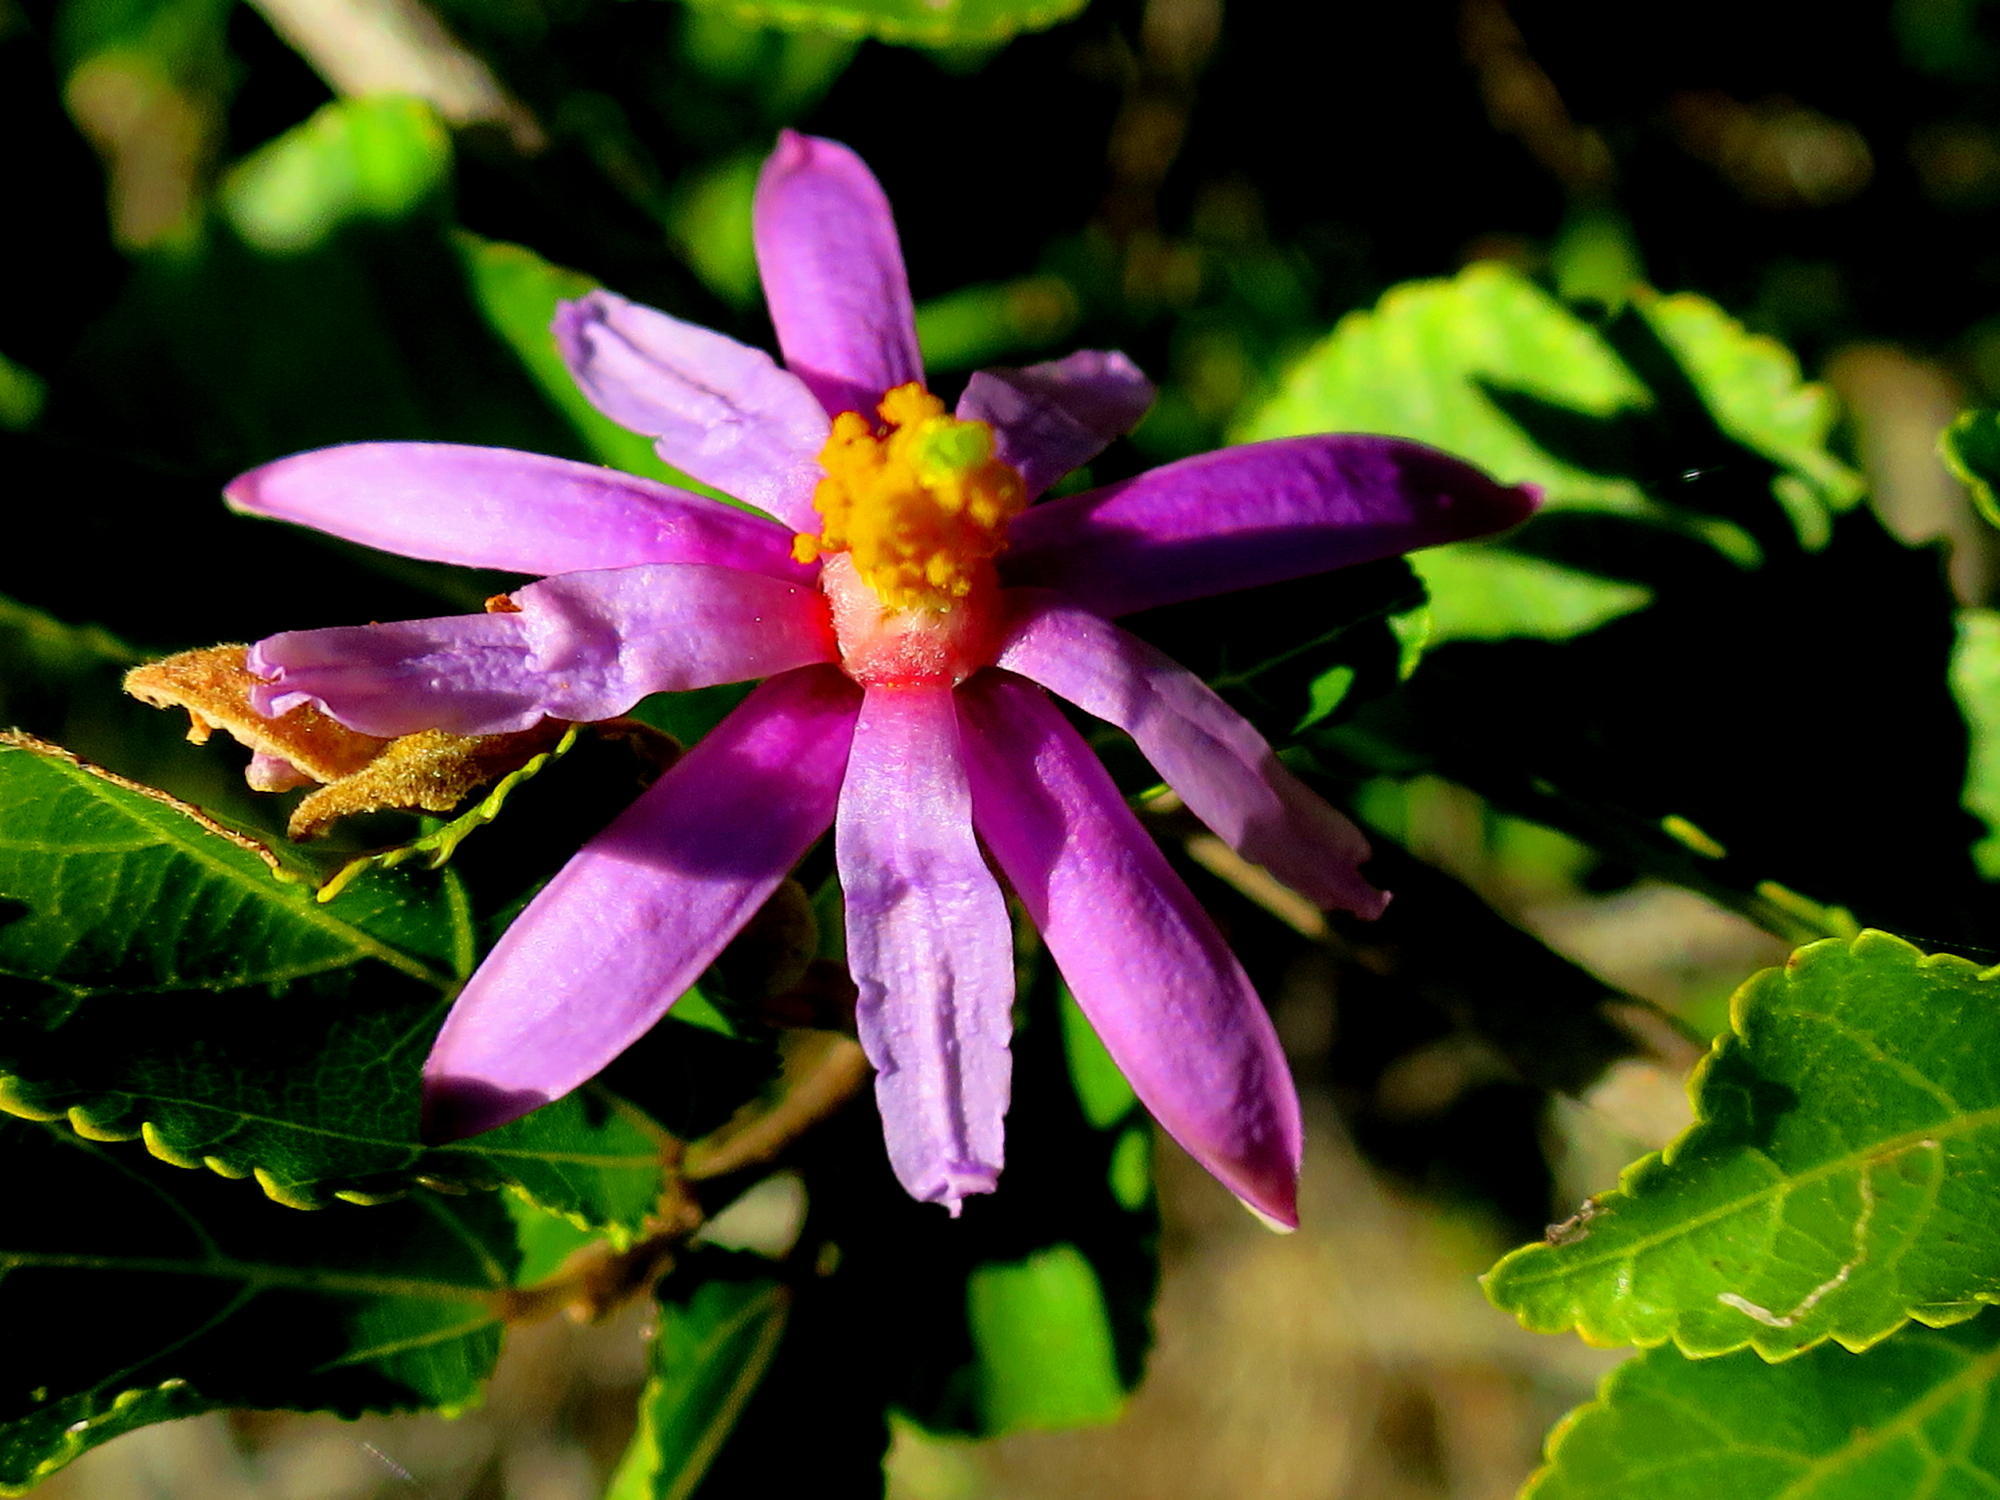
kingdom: Plantae
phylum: Tracheophyta
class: Magnoliopsida
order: Malvales
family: Malvaceae
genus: Grewia
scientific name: Grewia occidentalis
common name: Crossberry
